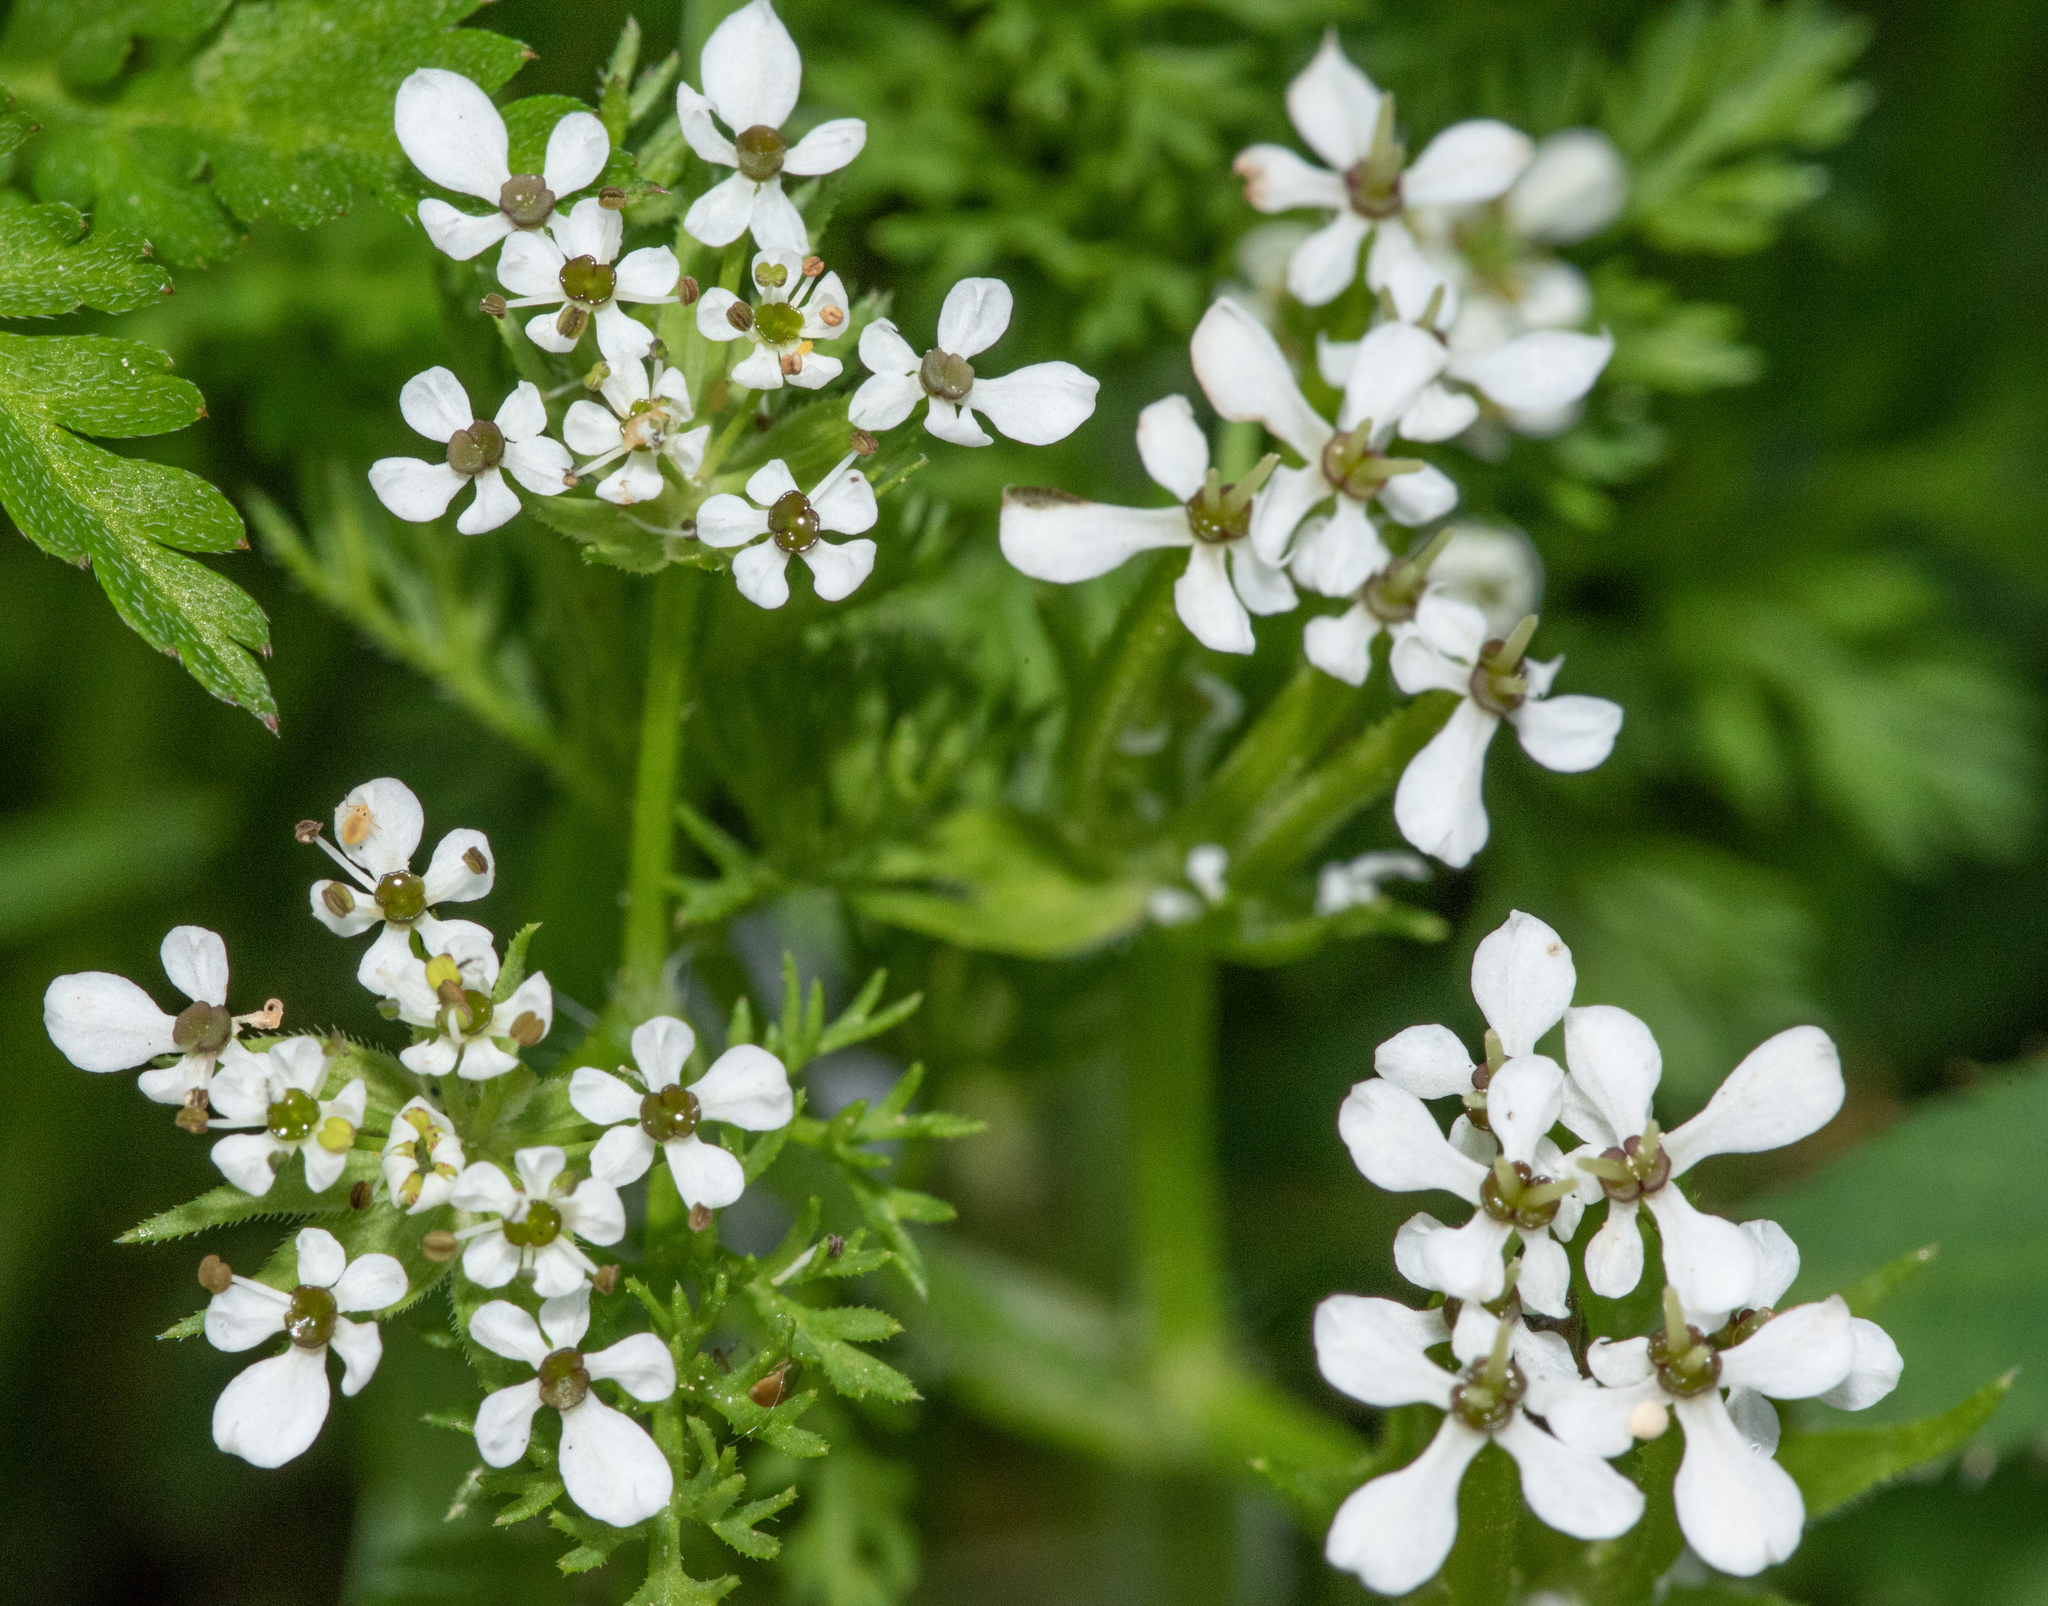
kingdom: Plantae
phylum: Tracheophyta
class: Magnoliopsida
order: Apiales
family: Apiaceae
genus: Scandix
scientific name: Scandix pecten-veneris
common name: Shepherd's-needle
